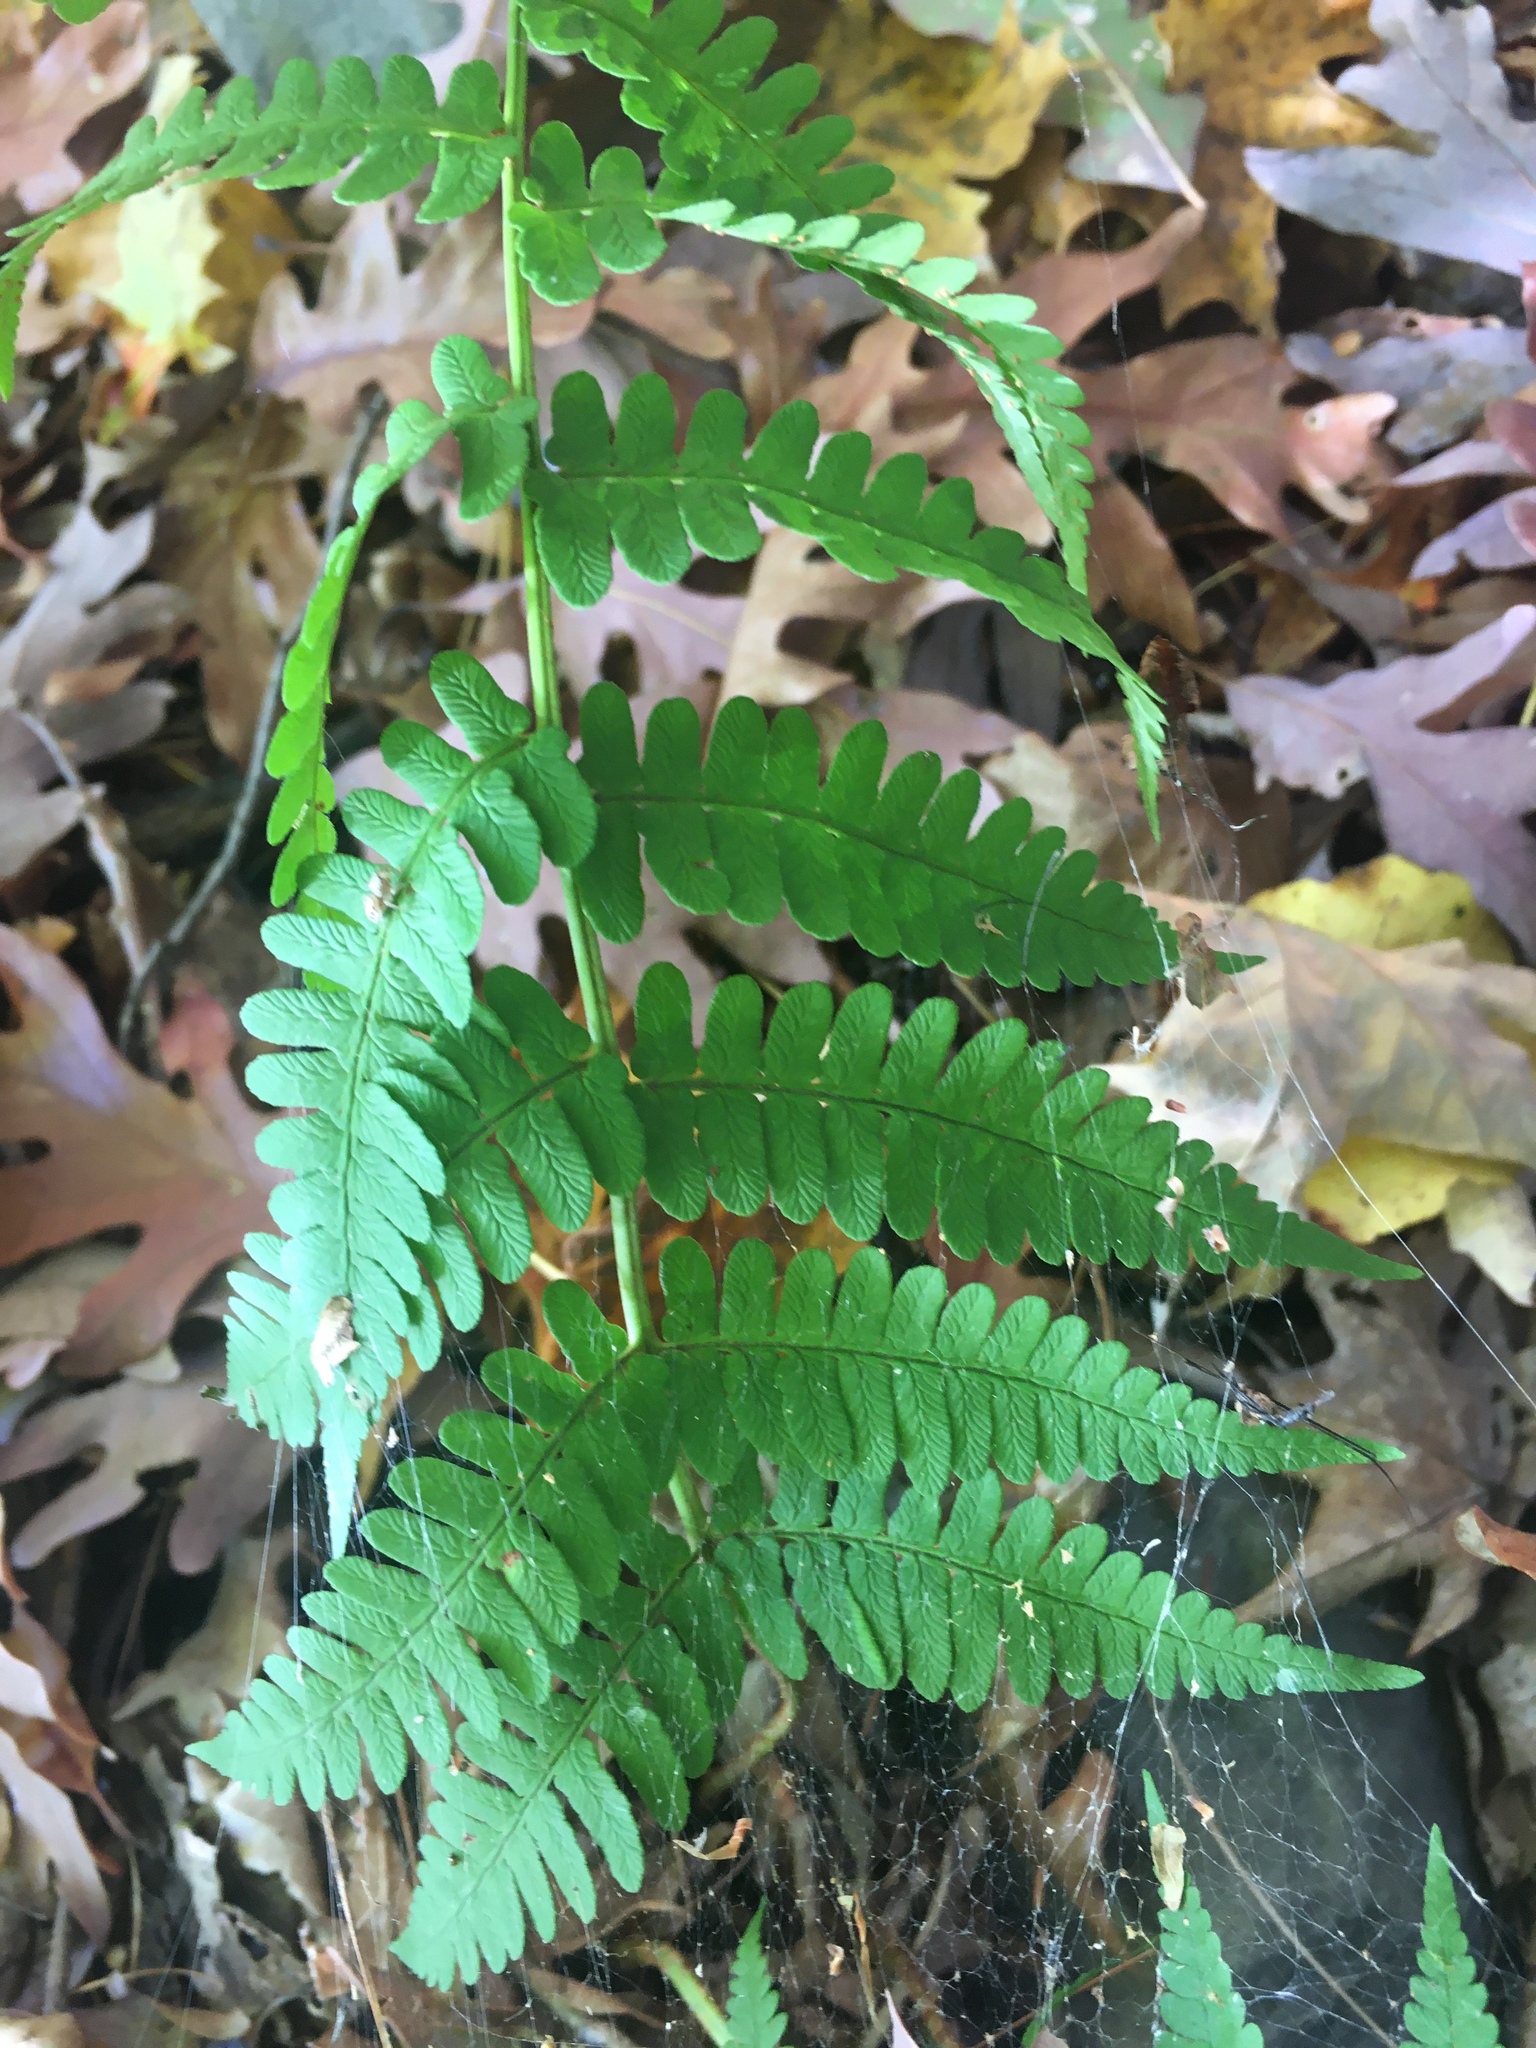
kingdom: Plantae
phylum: Tracheophyta
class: Polypodiopsida
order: Polypodiales
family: Dryopteridaceae
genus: Dryopteris
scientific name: Dryopteris marginalis
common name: Marginal wood fern
